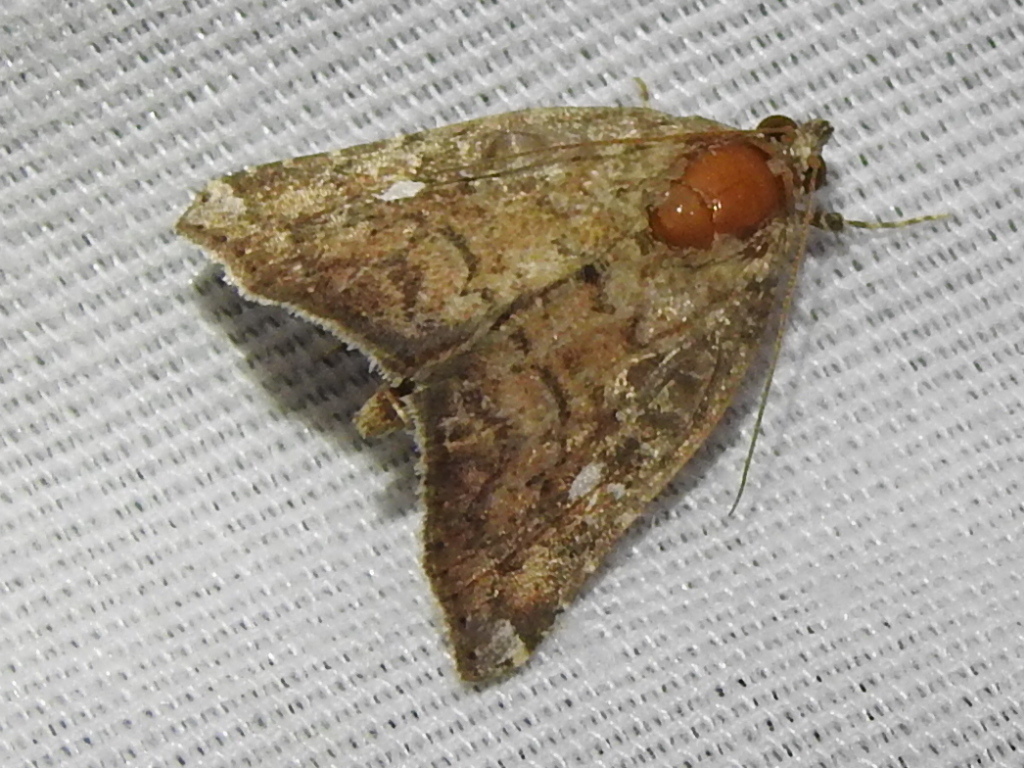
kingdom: Animalia
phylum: Arthropoda
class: Insecta
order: Lepidoptera
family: Noctuidae
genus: Amyna
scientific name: Amyna bullula
